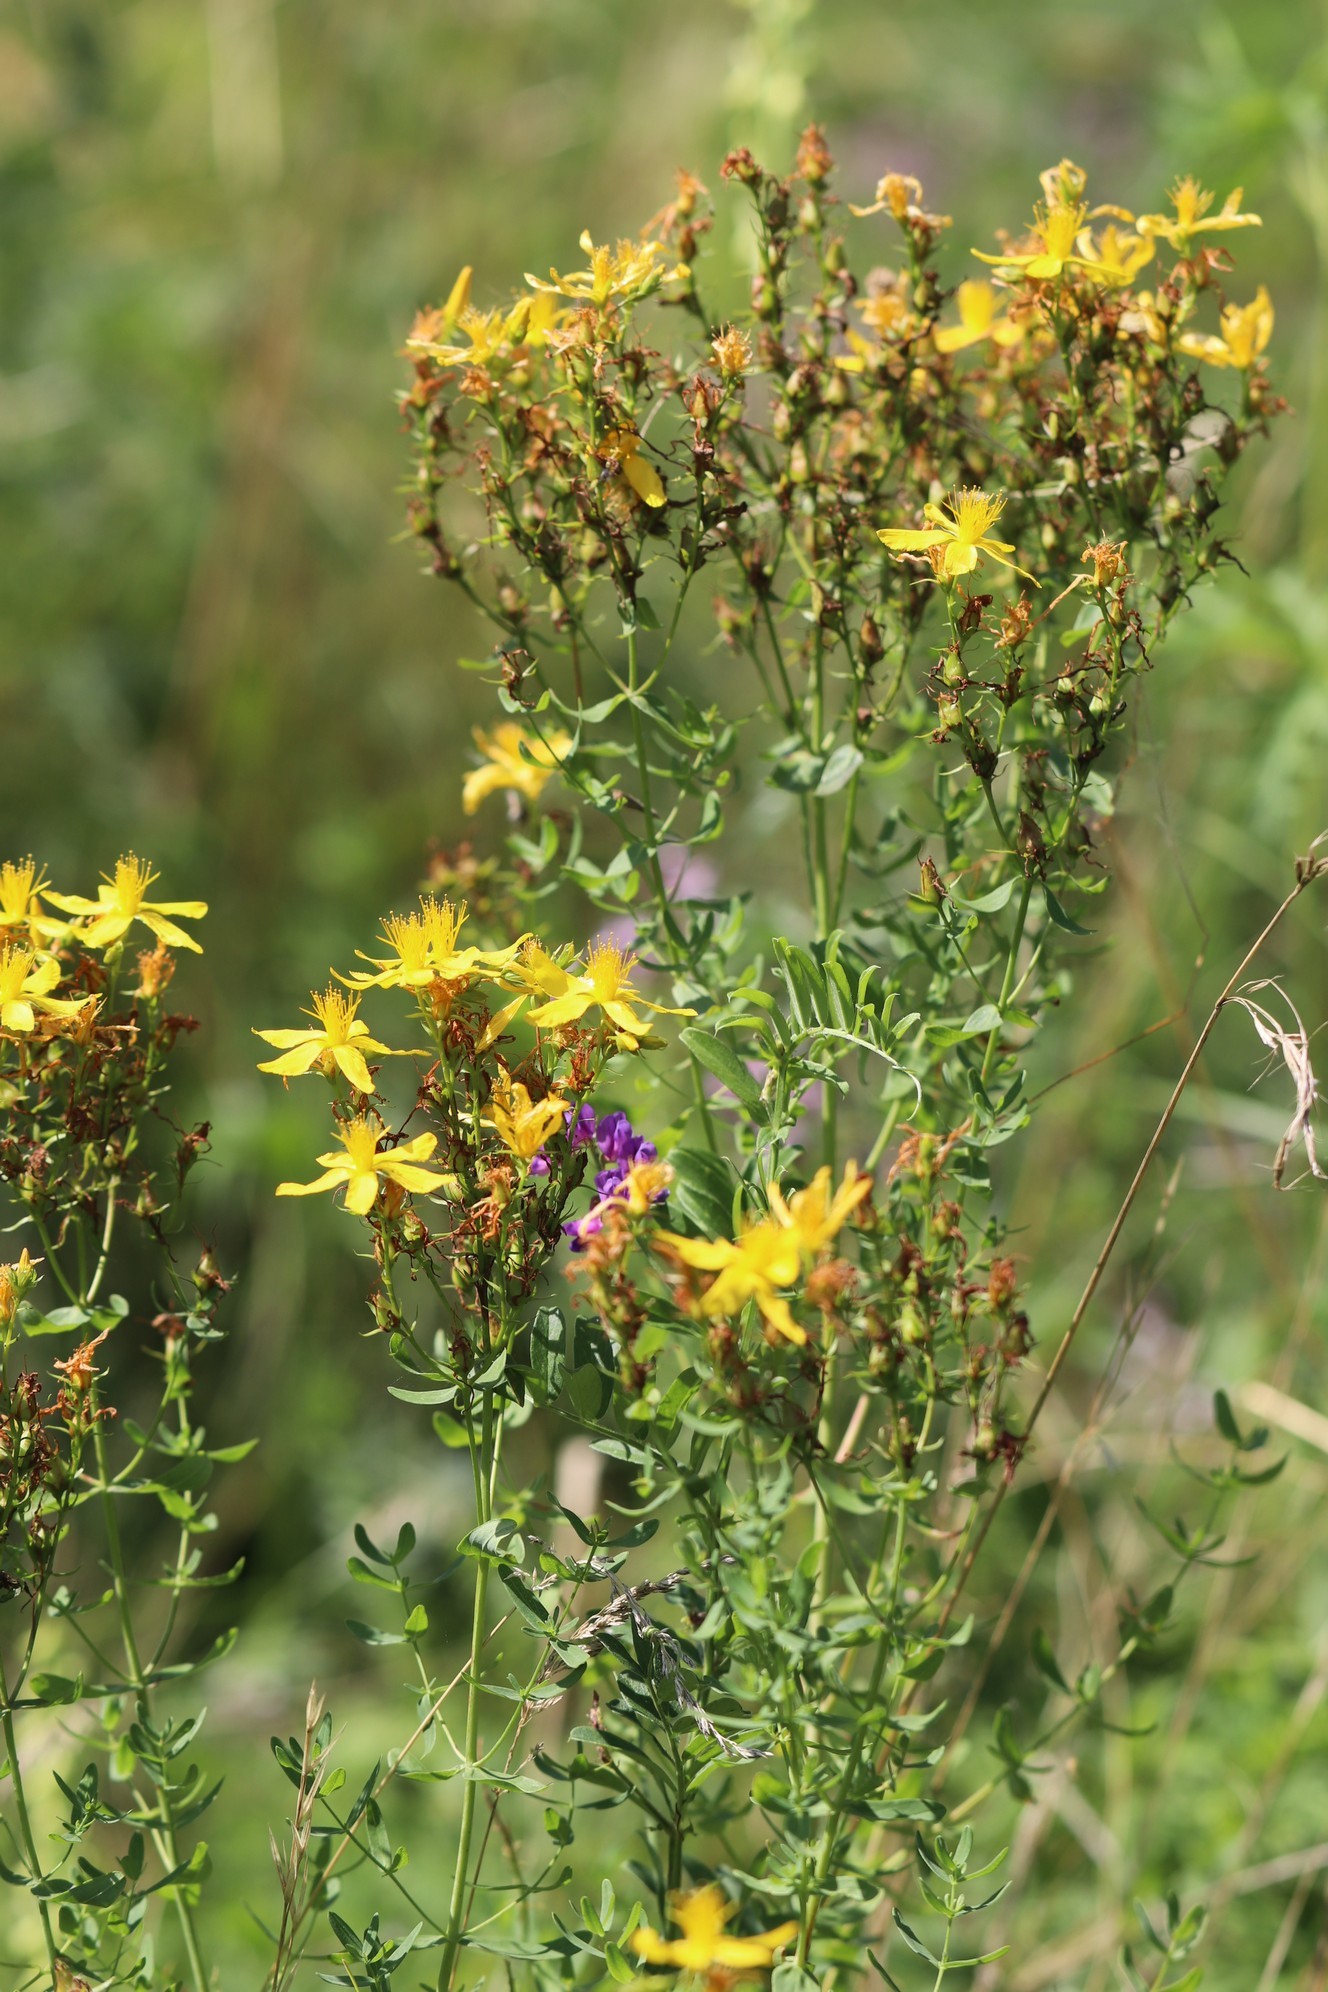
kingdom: Plantae
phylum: Tracheophyta
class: Magnoliopsida
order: Malpighiales
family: Hypericaceae
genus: Hypericum
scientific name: Hypericum perforatum
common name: Common st. johnswort
